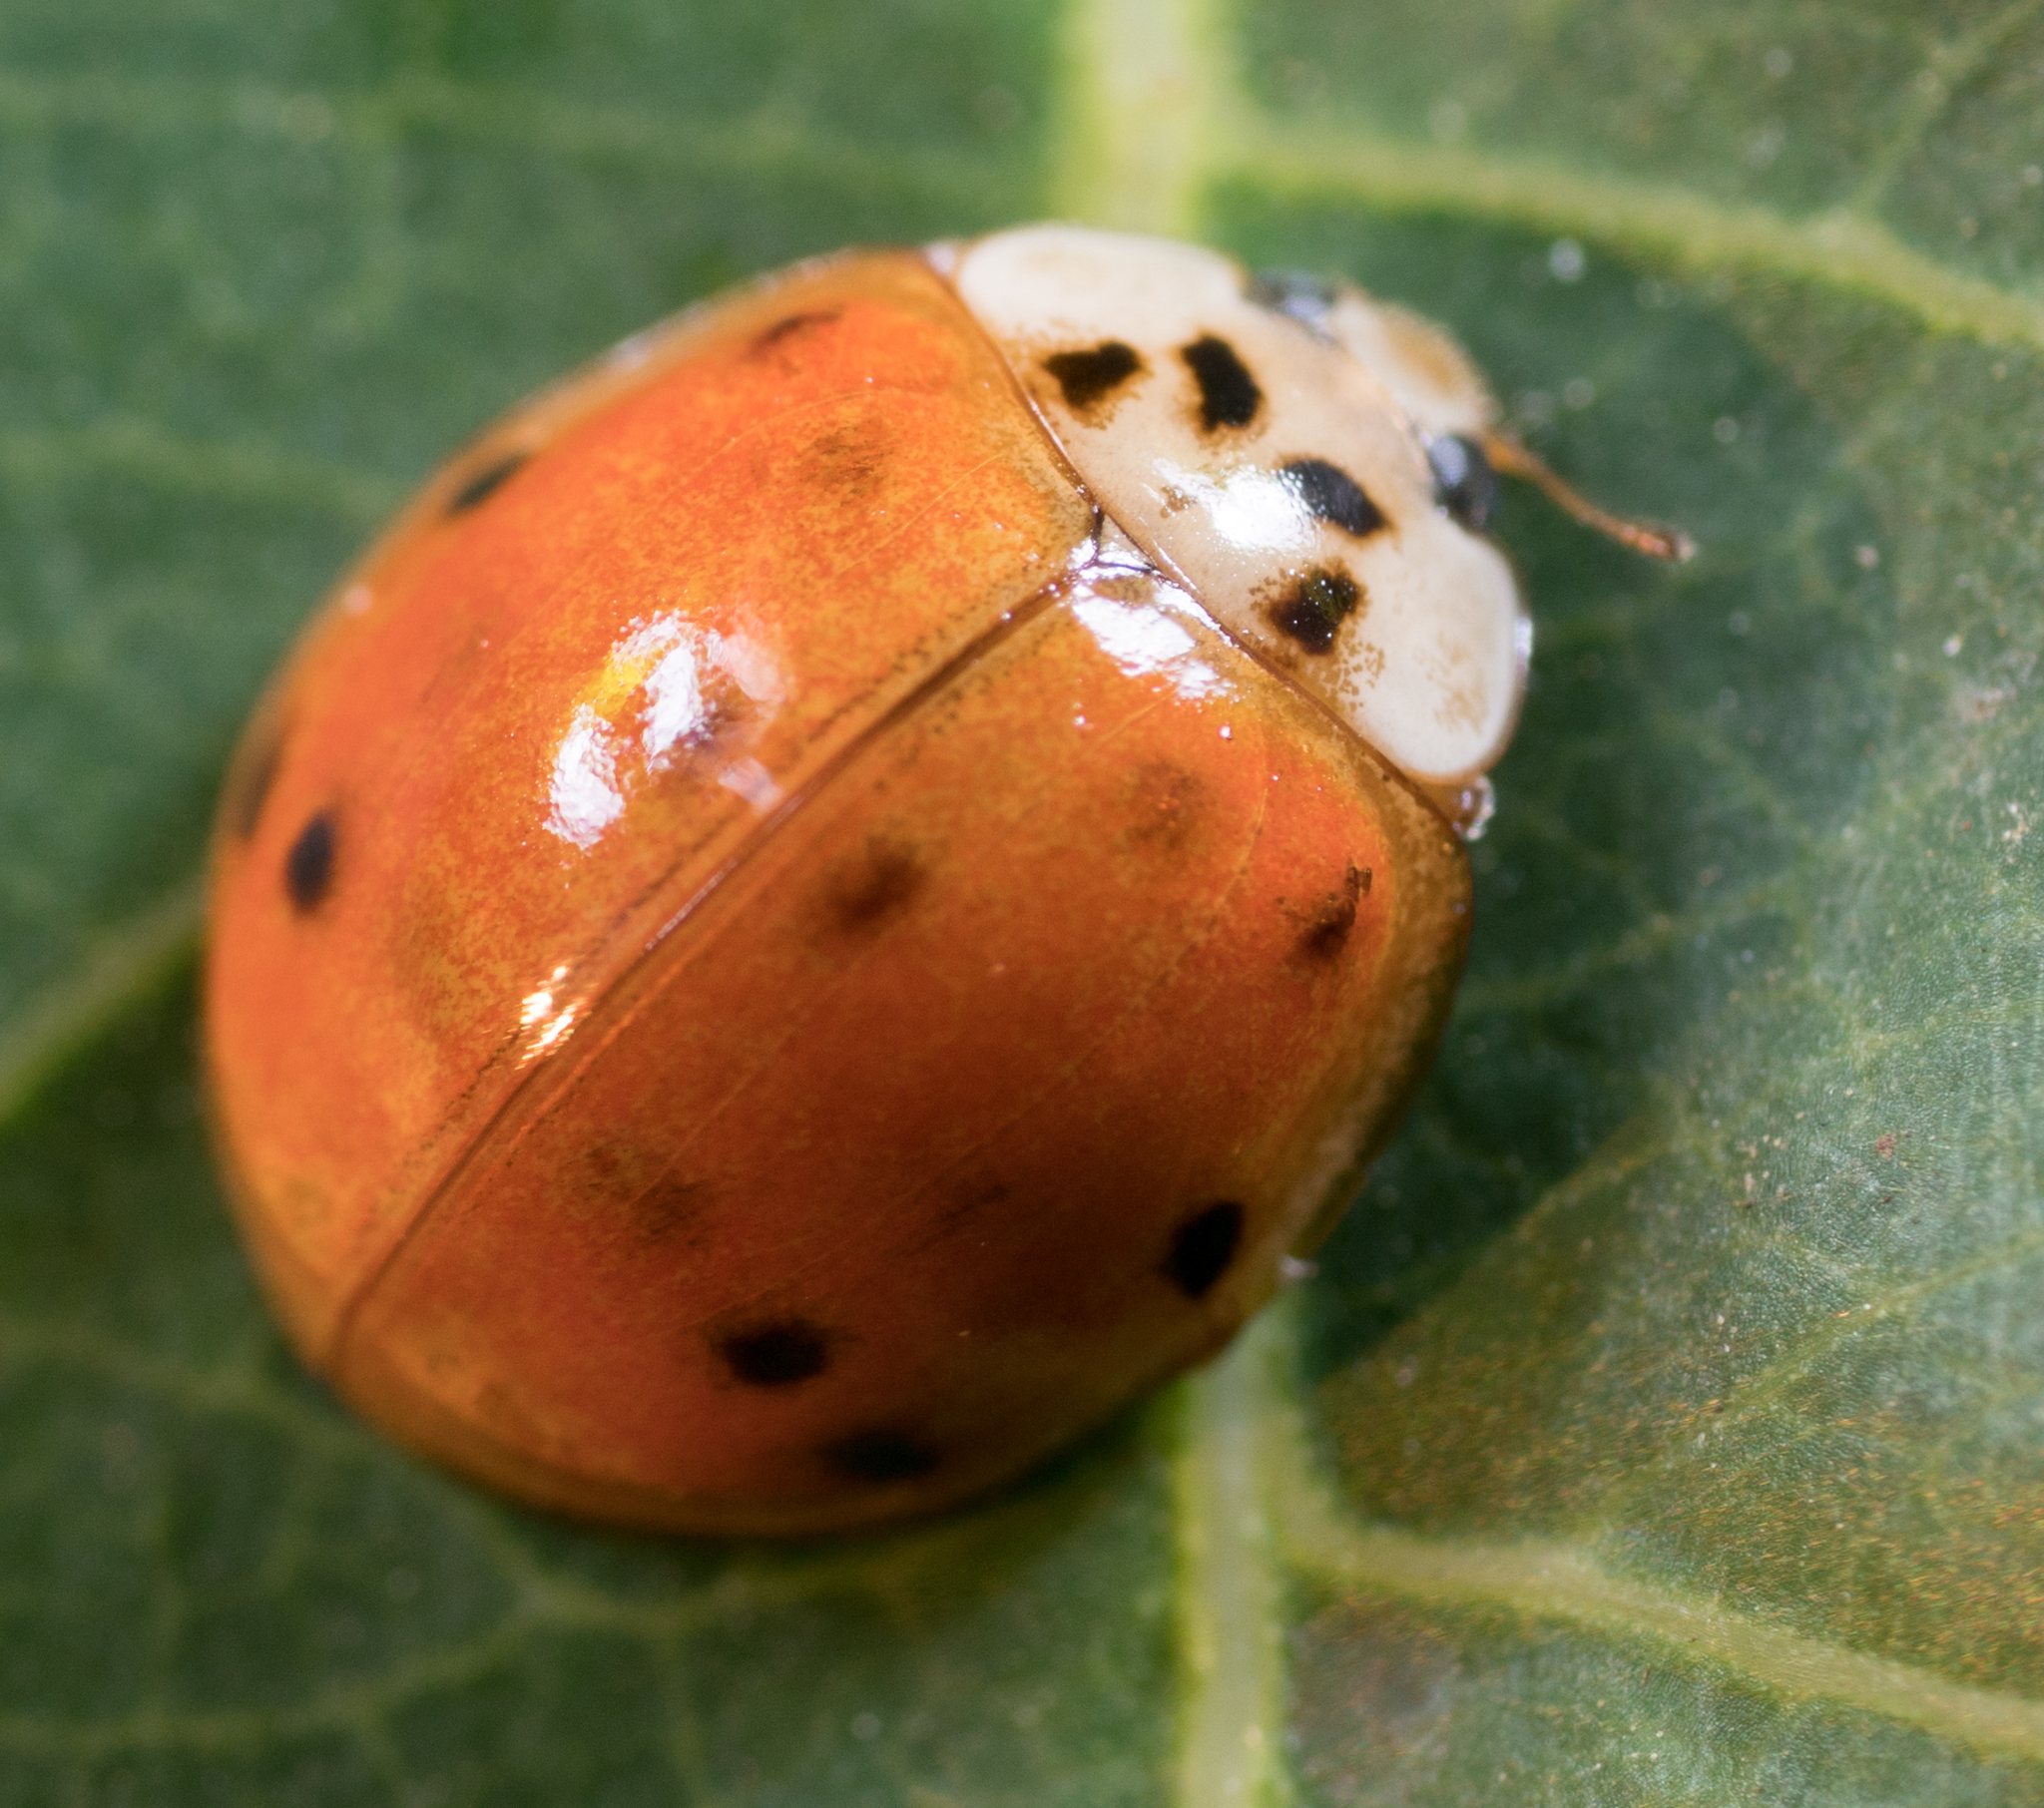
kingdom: Animalia
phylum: Arthropoda
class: Insecta
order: Coleoptera
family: Coccinellidae
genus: Harmonia
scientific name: Harmonia axyridis
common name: Harlequin ladybird
